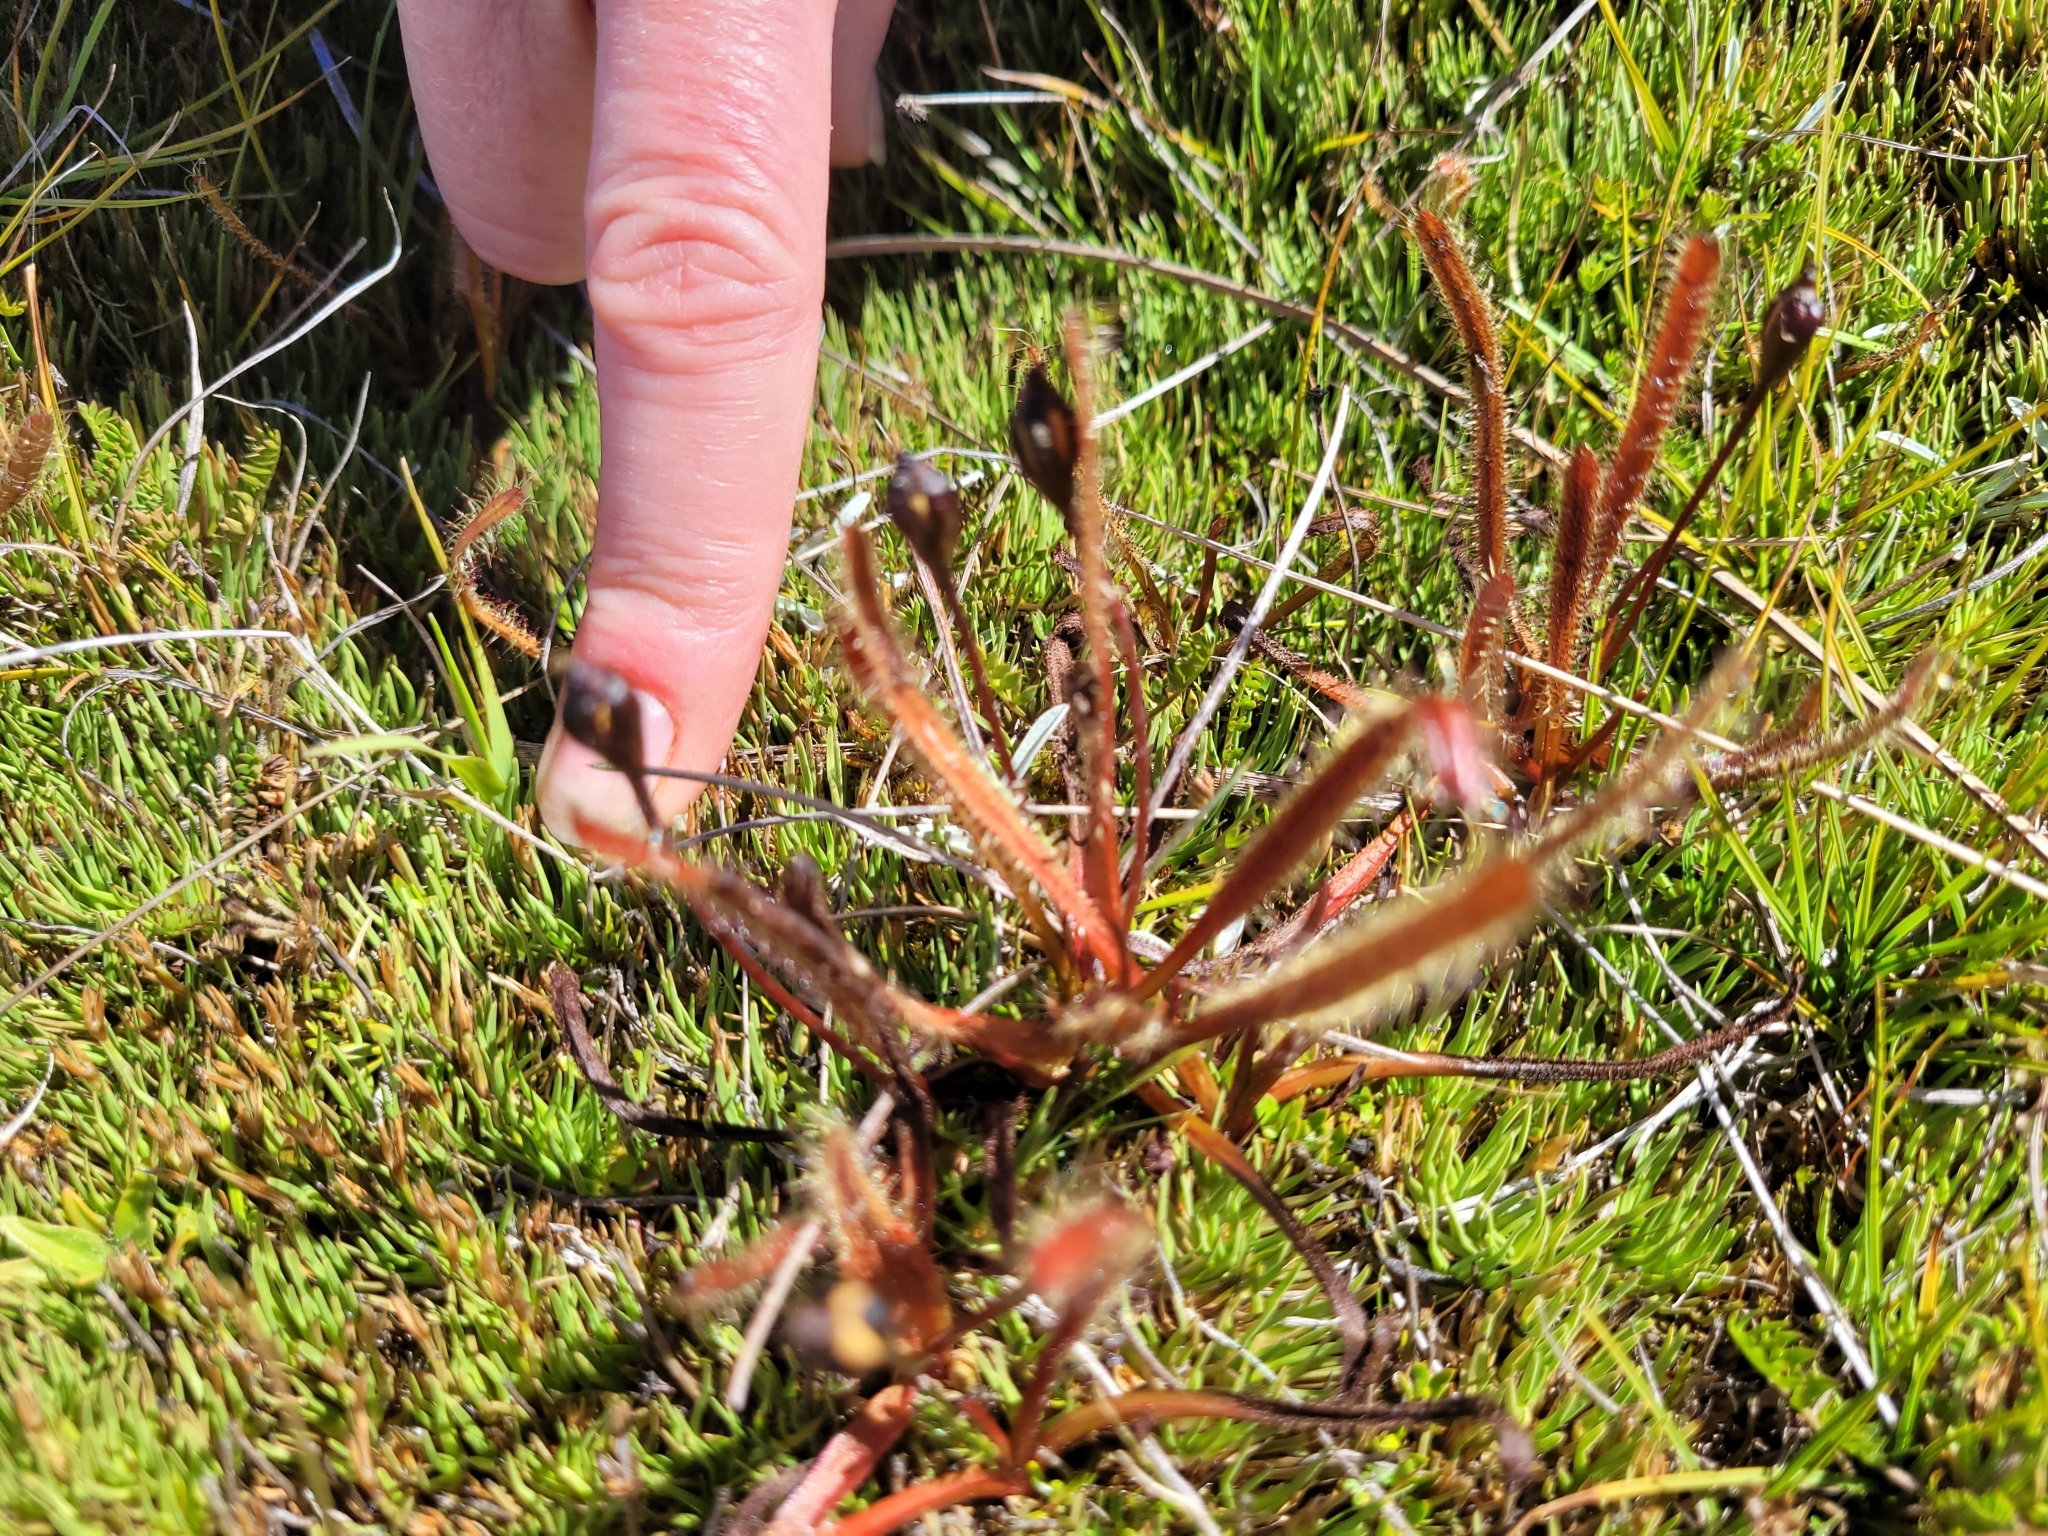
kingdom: Plantae
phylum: Tracheophyta
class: Magnoliopsida
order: Caryophyllales
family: Droseraceae
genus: Drosera
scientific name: Drosera arcturi
